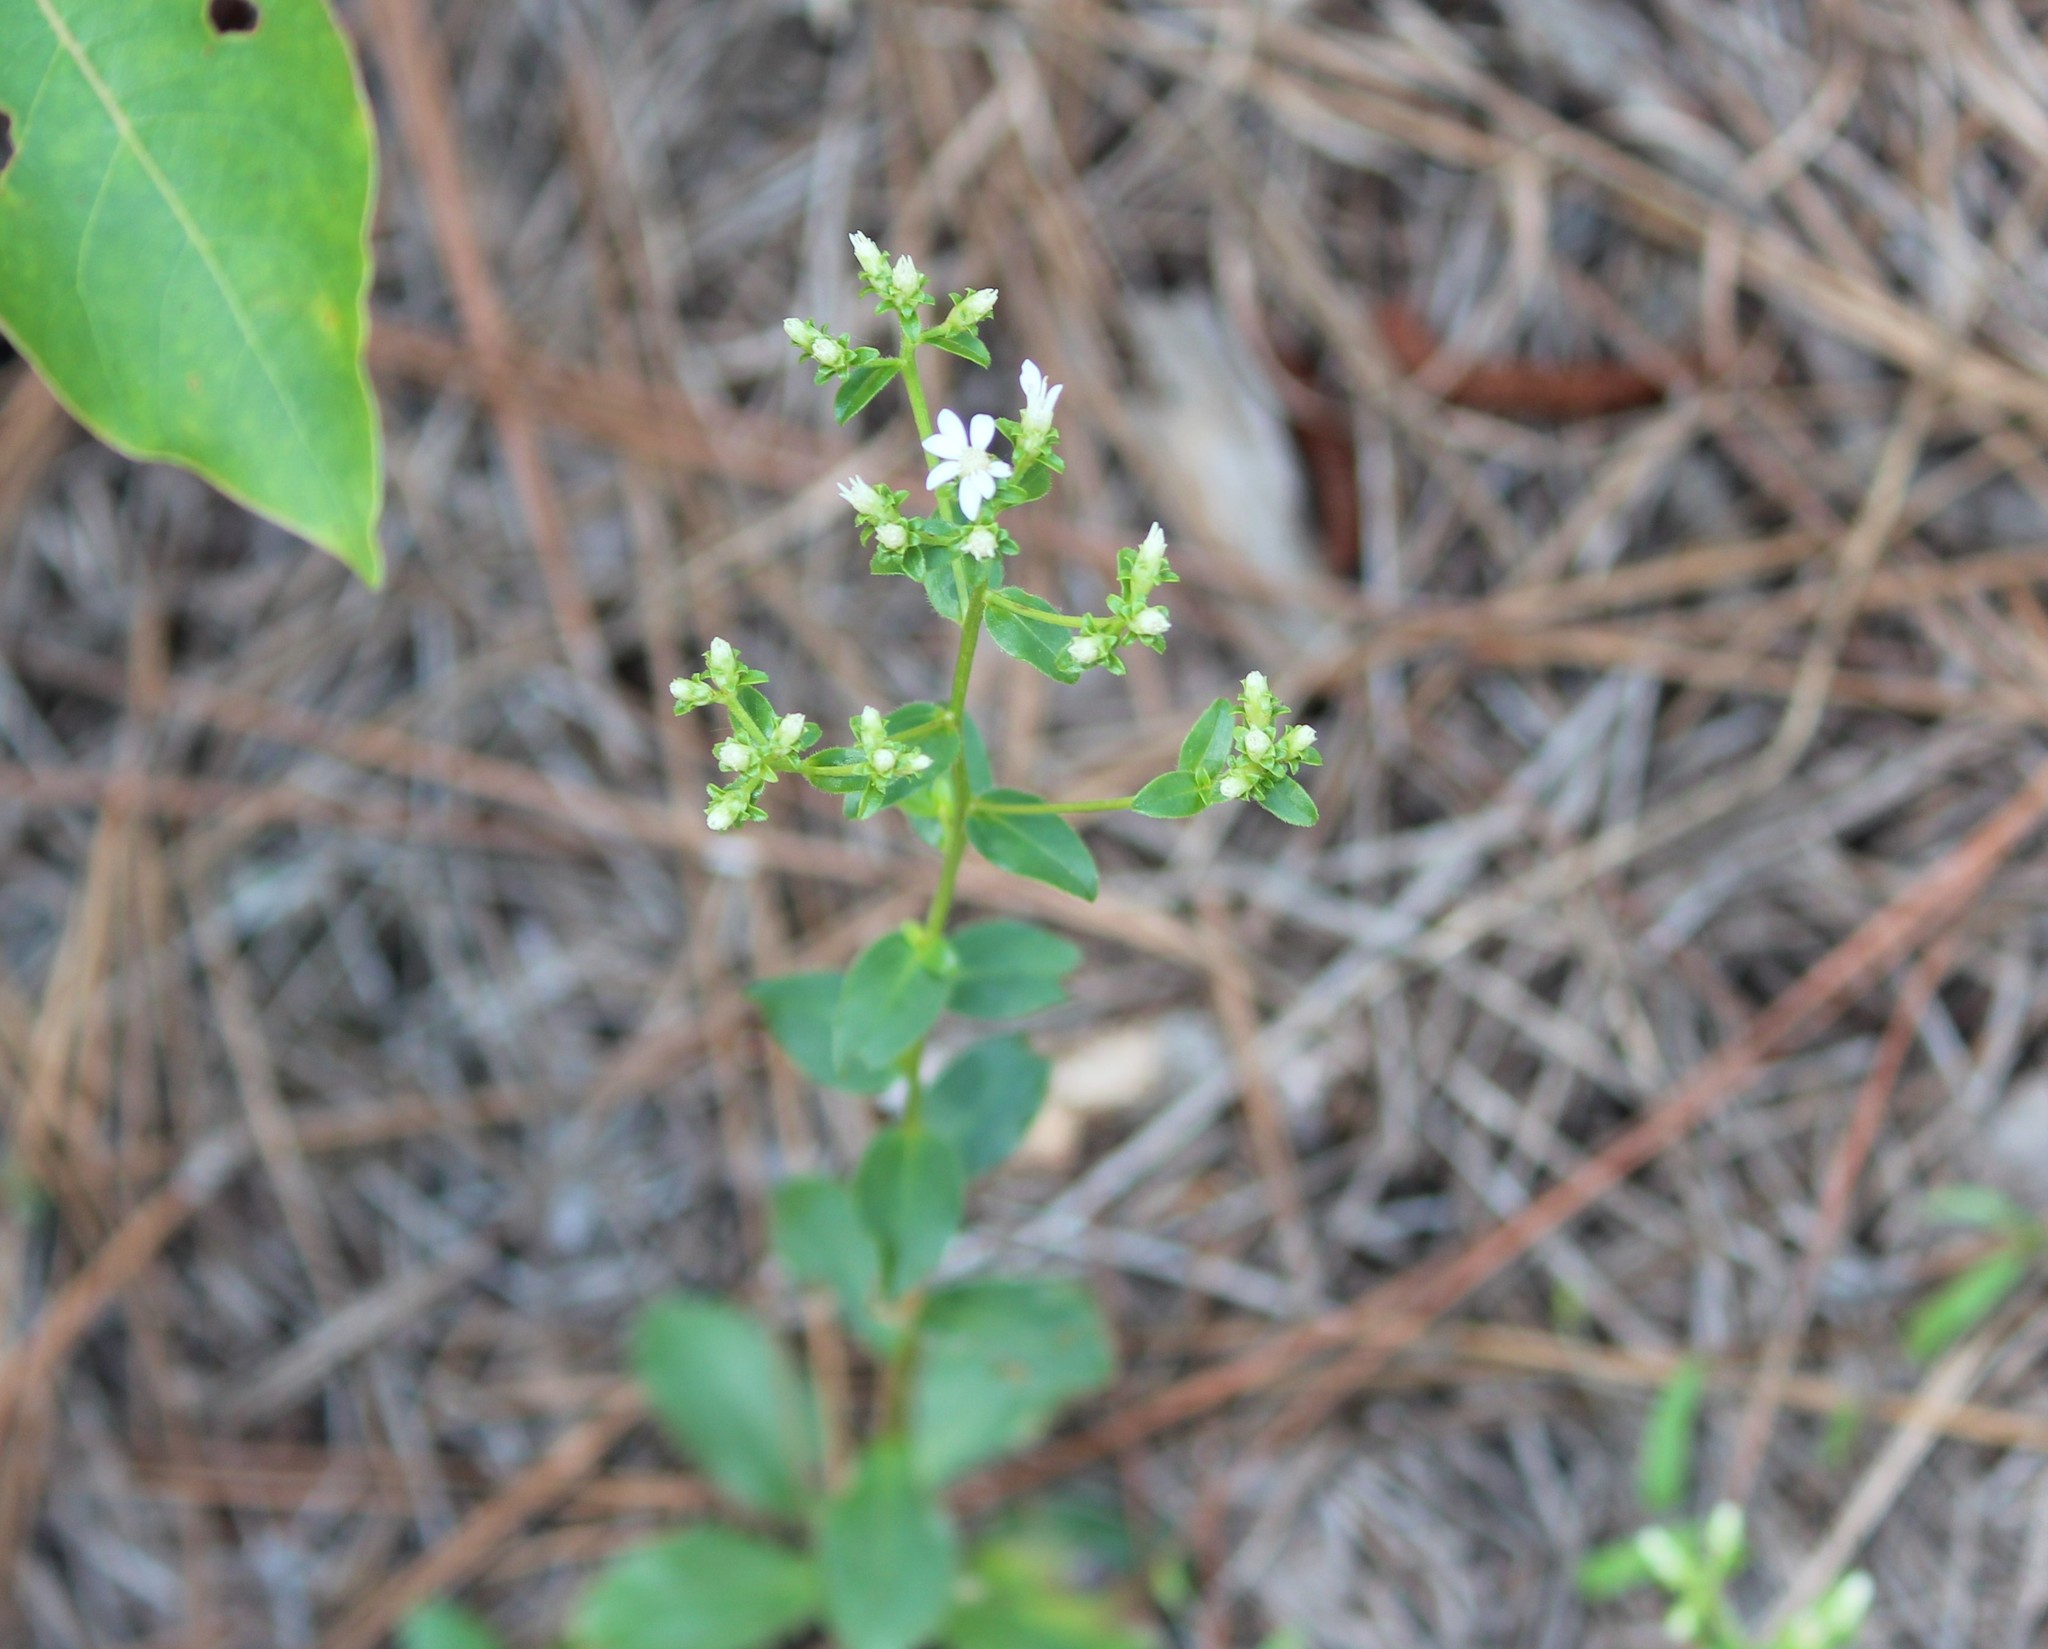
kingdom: Plantae
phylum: Tracheophyta
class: Magnoliopsida
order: Asterales
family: Asteraceae
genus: Sericocarpus
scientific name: Sericocarpus asteroides
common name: Toothed white-top aster
